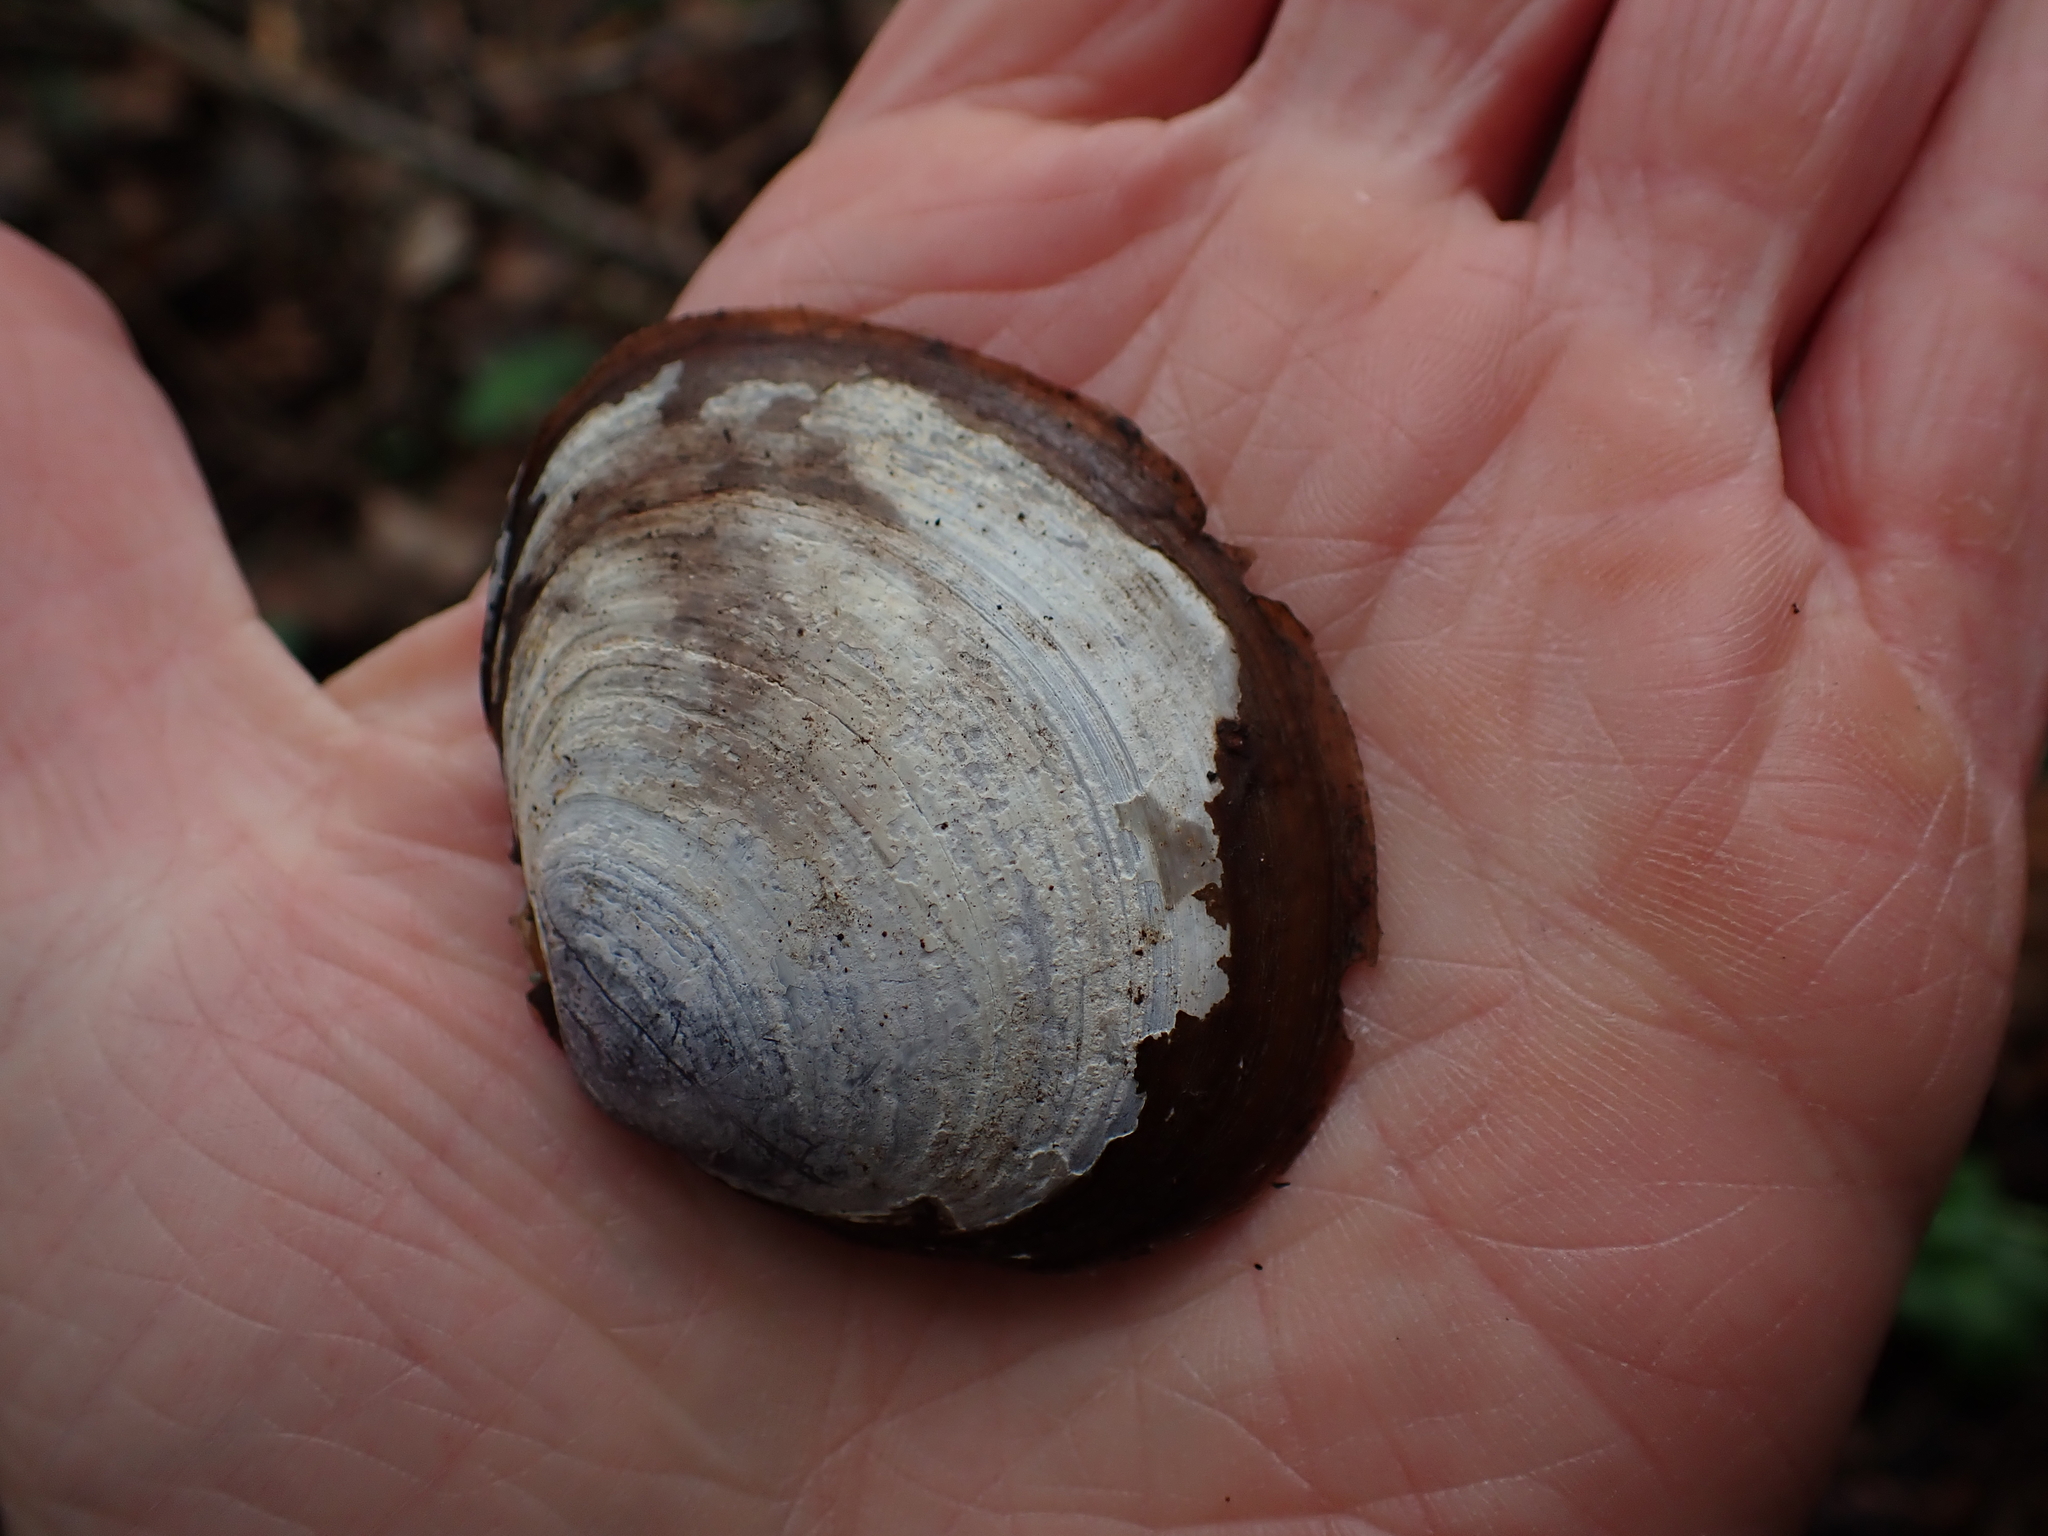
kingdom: Animalia
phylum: Mollusca
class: Bivalvia
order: Cardiida
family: Psammobiidae
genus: Nuttallia
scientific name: Nuttallia obscurata
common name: Purple mahogany-clam
